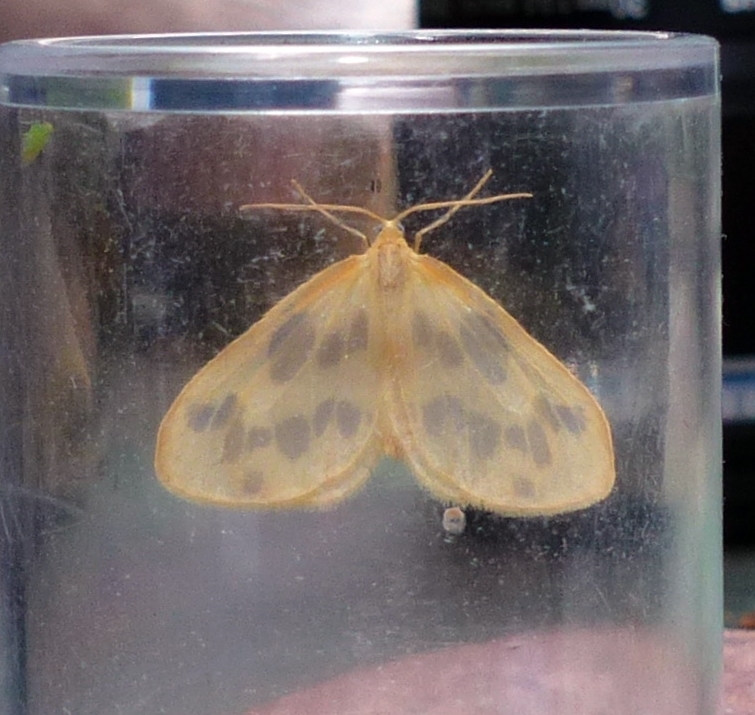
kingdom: Animalia
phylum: Arthropoda
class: Insecta
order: Lepidoptera
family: Geometridae
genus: Eubaphe
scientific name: Eubaphe mendica
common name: Beggar
